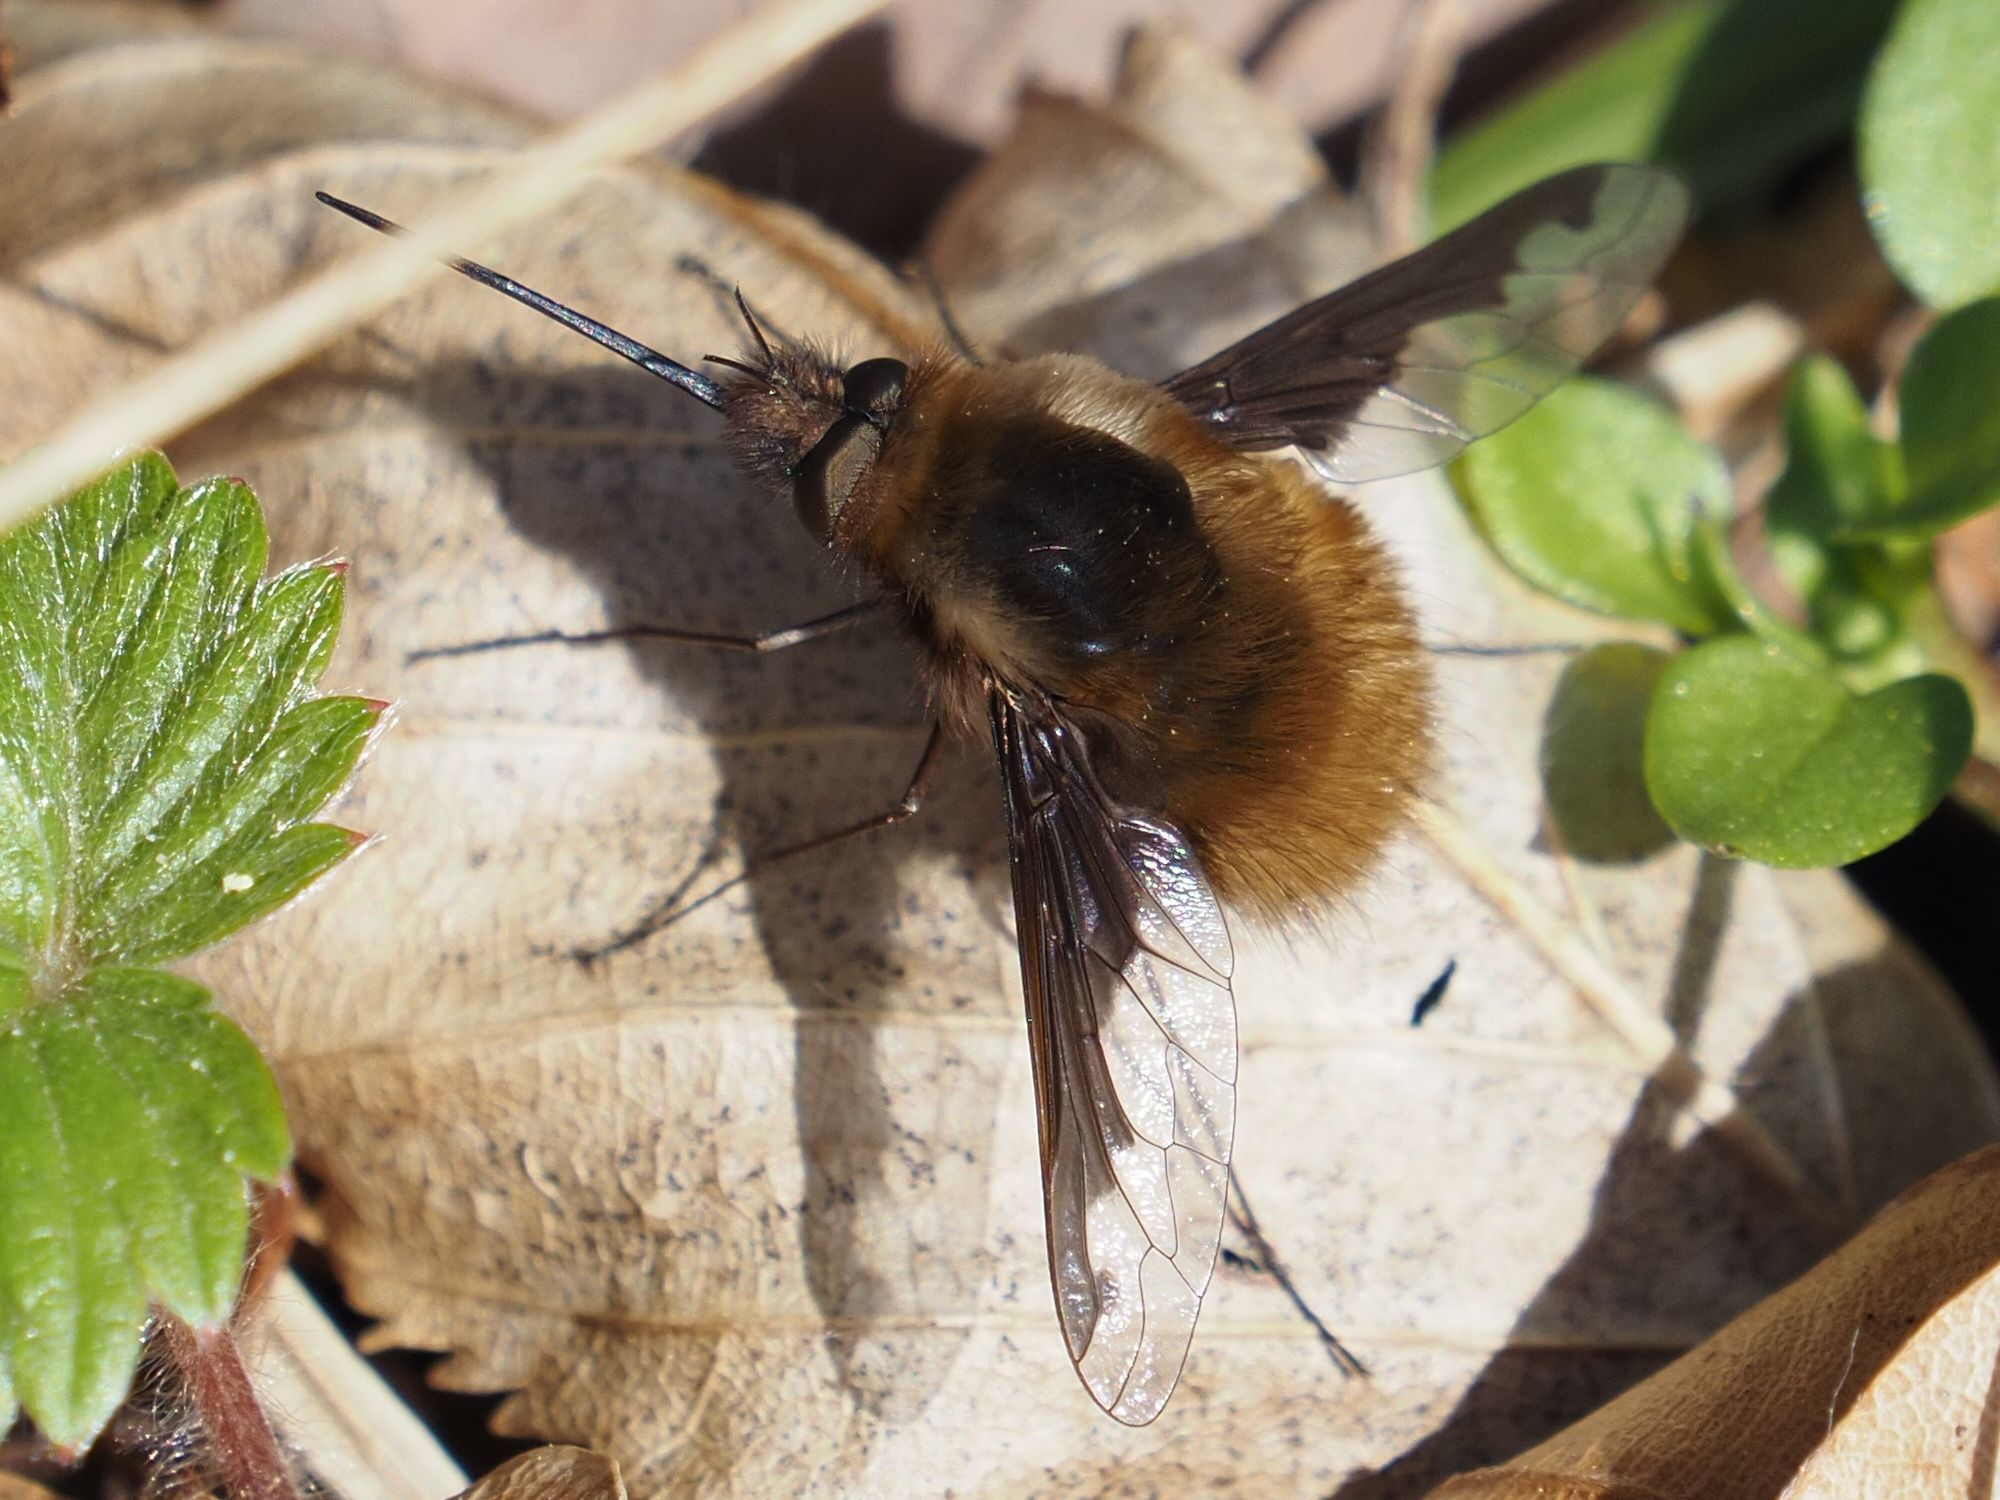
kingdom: Animalia
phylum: Arthropoda
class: Insecta
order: Diptera
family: Bombyliidae
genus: Bombylius
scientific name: Bombylius major
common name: Bee fly
